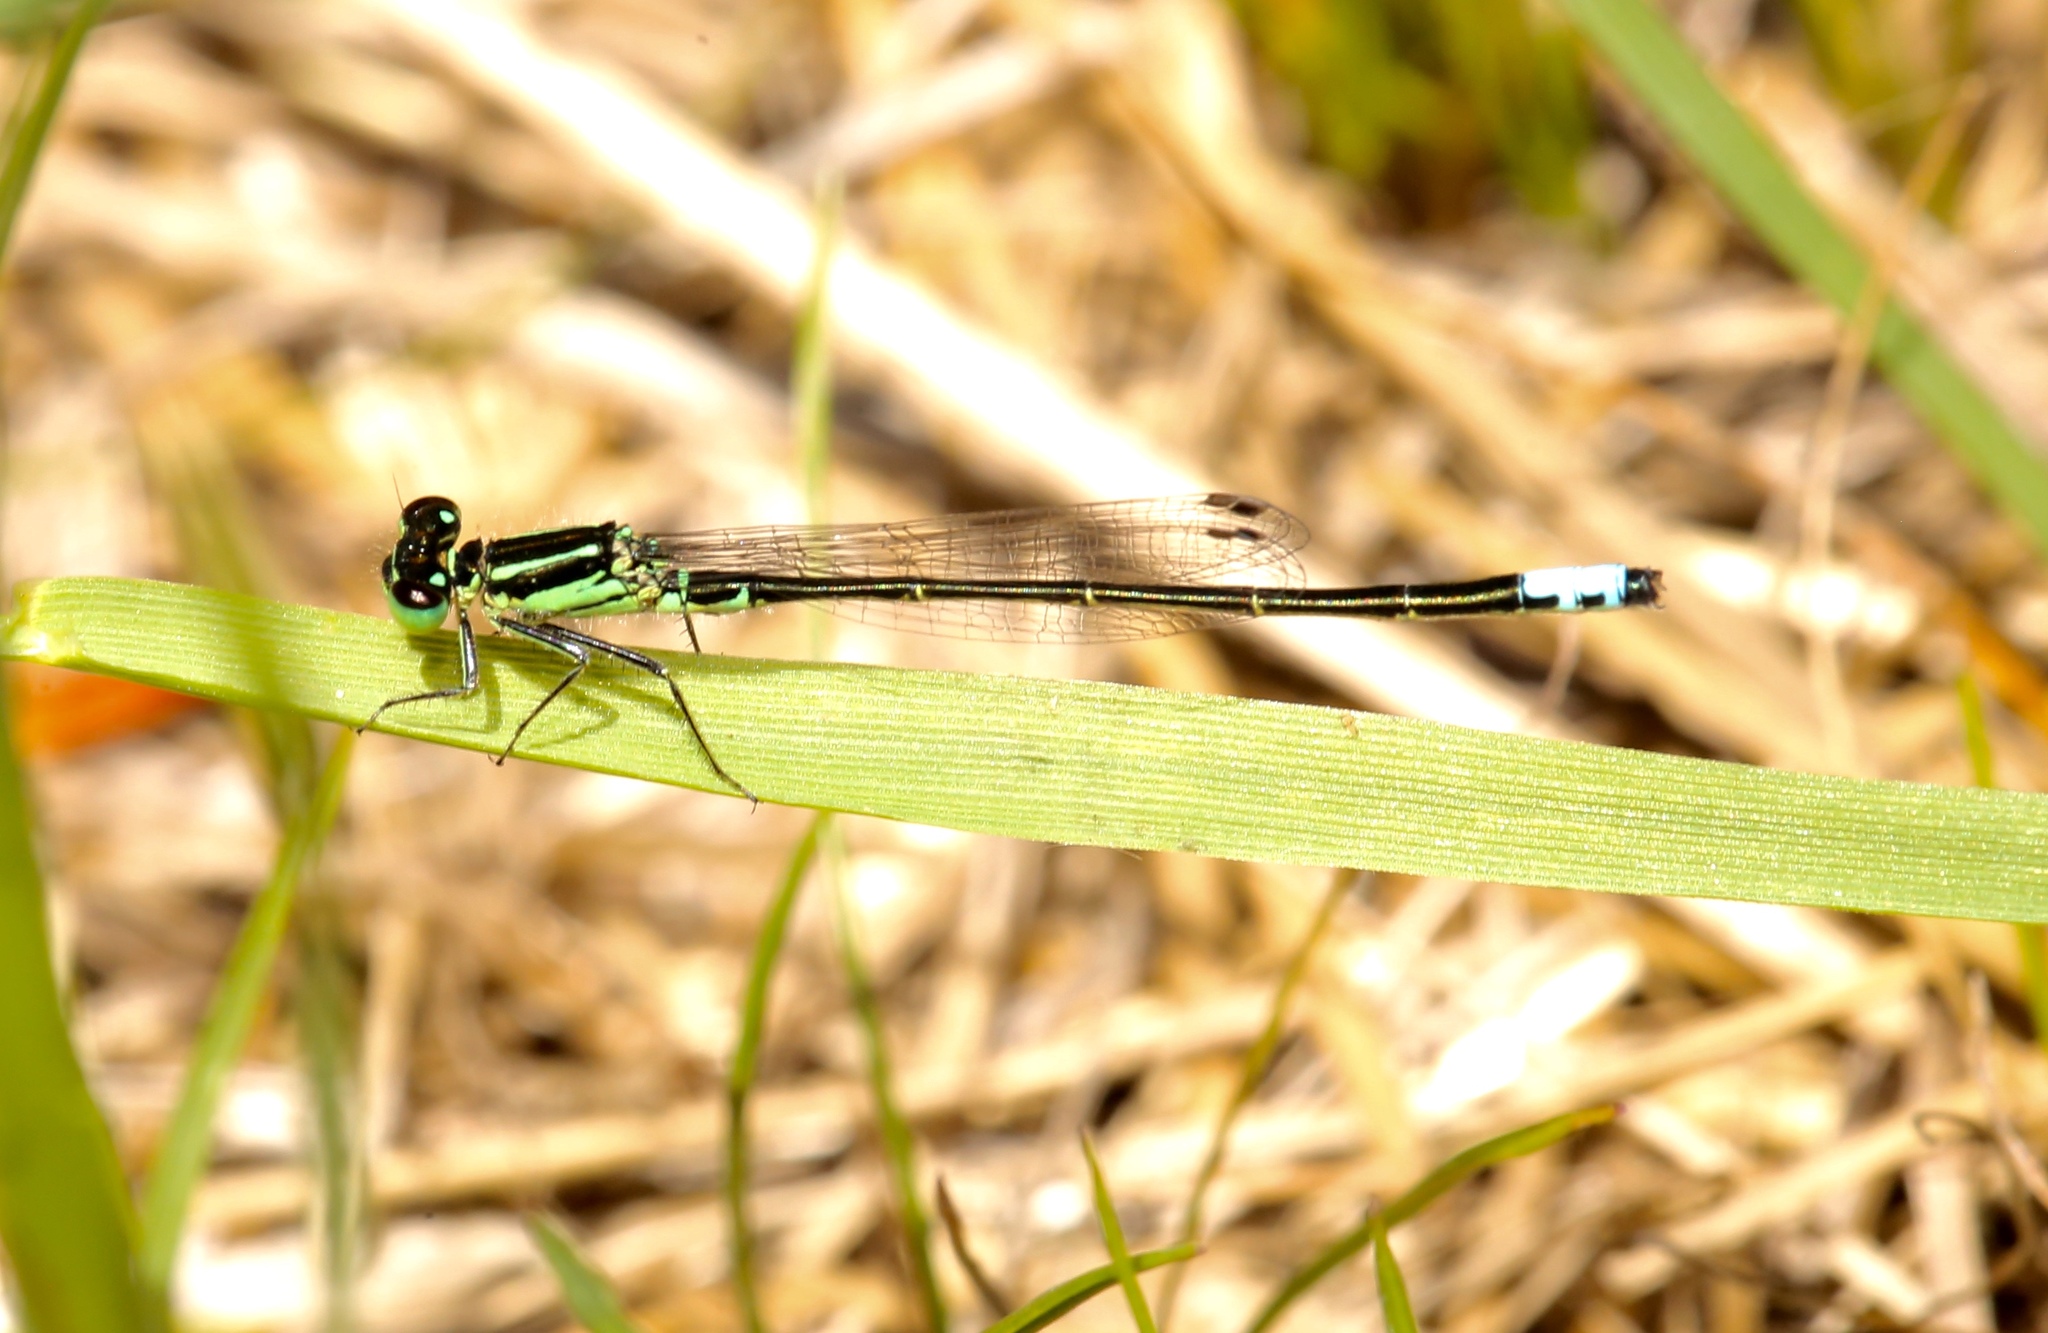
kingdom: Animalia
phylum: Arthropoda
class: Insecta
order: Odonata
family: Coenagrionidae
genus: Ischnura
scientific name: Ischnura verticalis
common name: Eastern forktail
